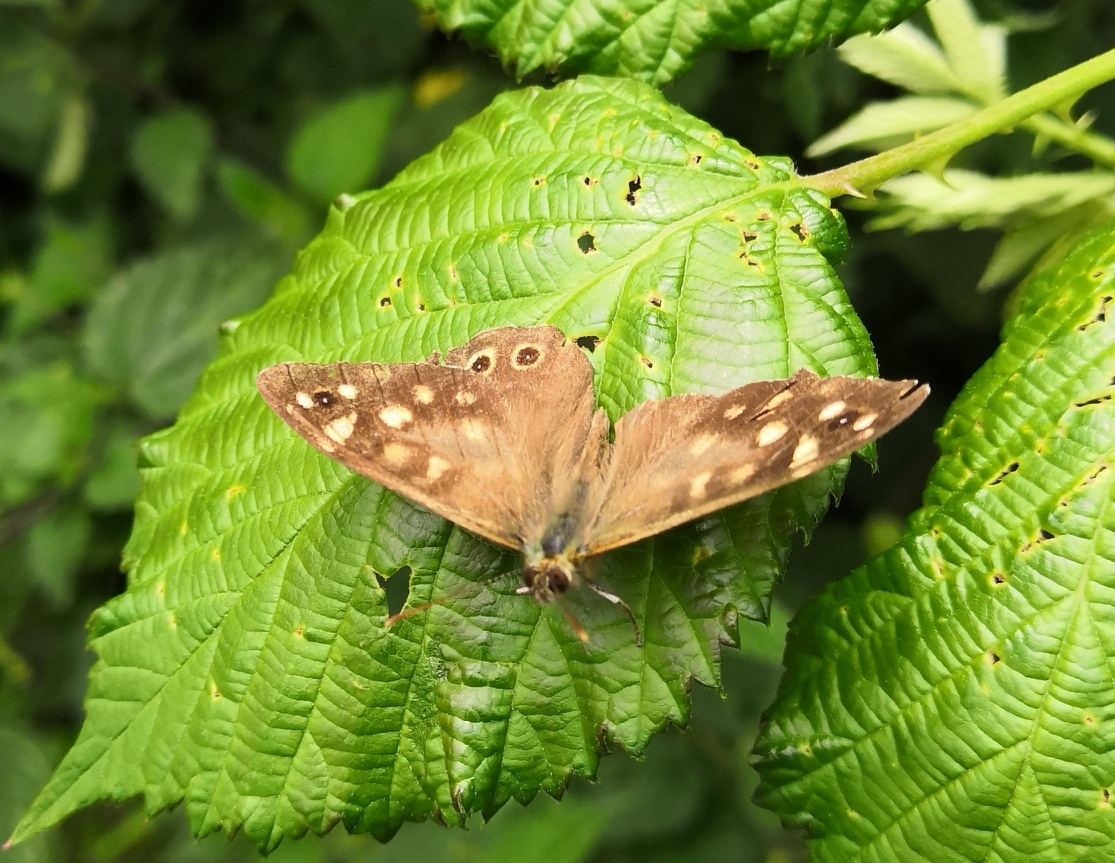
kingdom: Animalia
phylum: Arthropoda
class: Insecta
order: Lepidoptera
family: Nymphalidae
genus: Pararge
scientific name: Pararge aegeria
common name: Speckled wood
